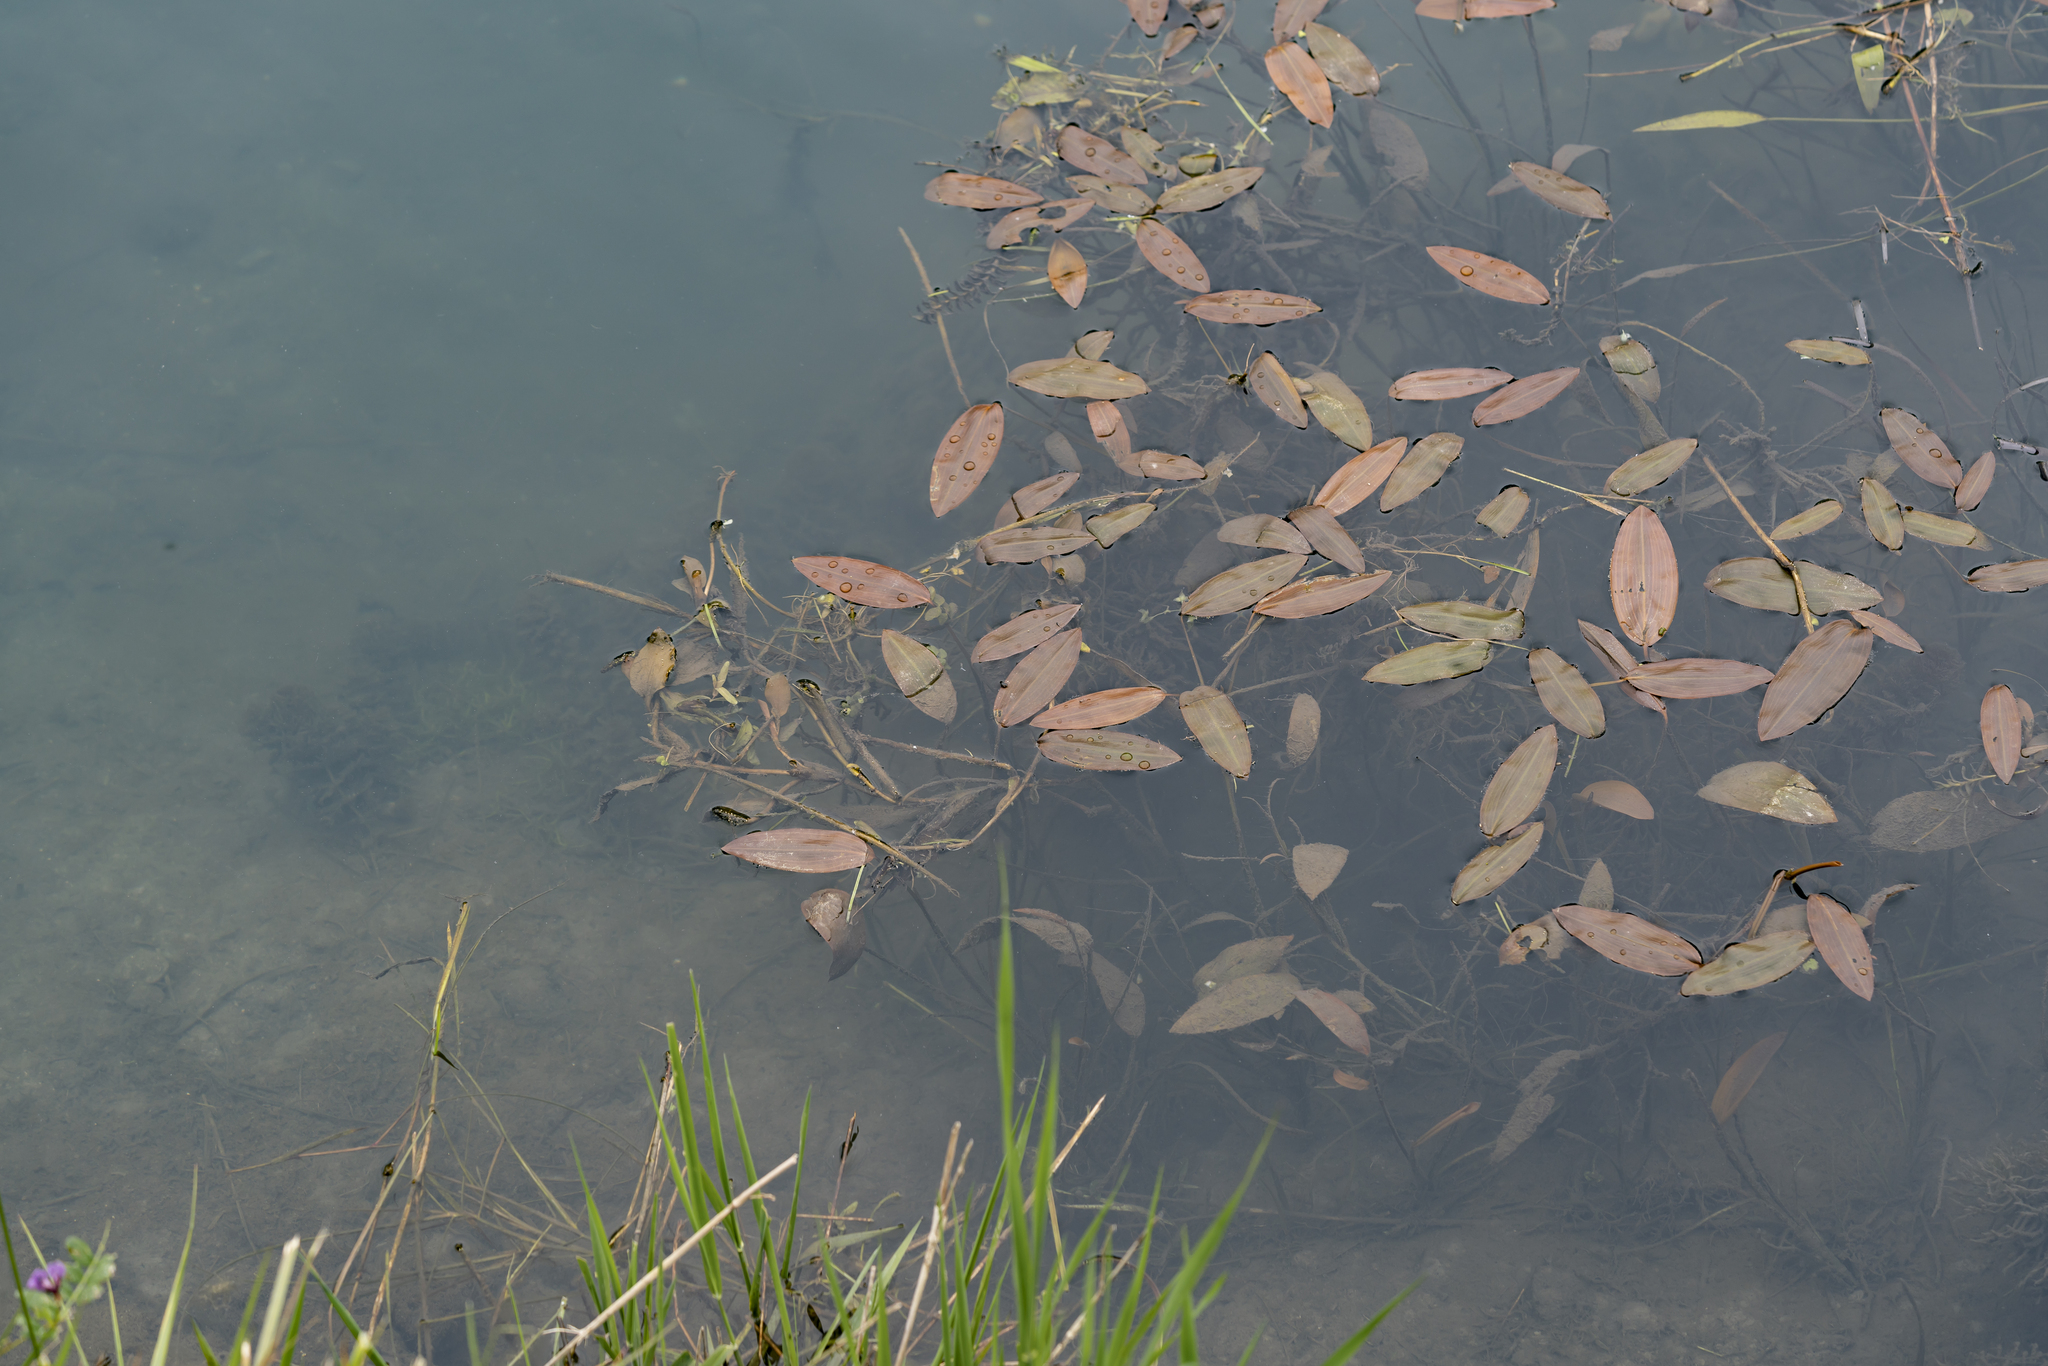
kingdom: Plantae
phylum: Tracheophyta
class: Liliopsida
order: Alismatales
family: Potamogetonaceae
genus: Potamogeton
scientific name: Potamogeton natans
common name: Broad-leaved pondweed
